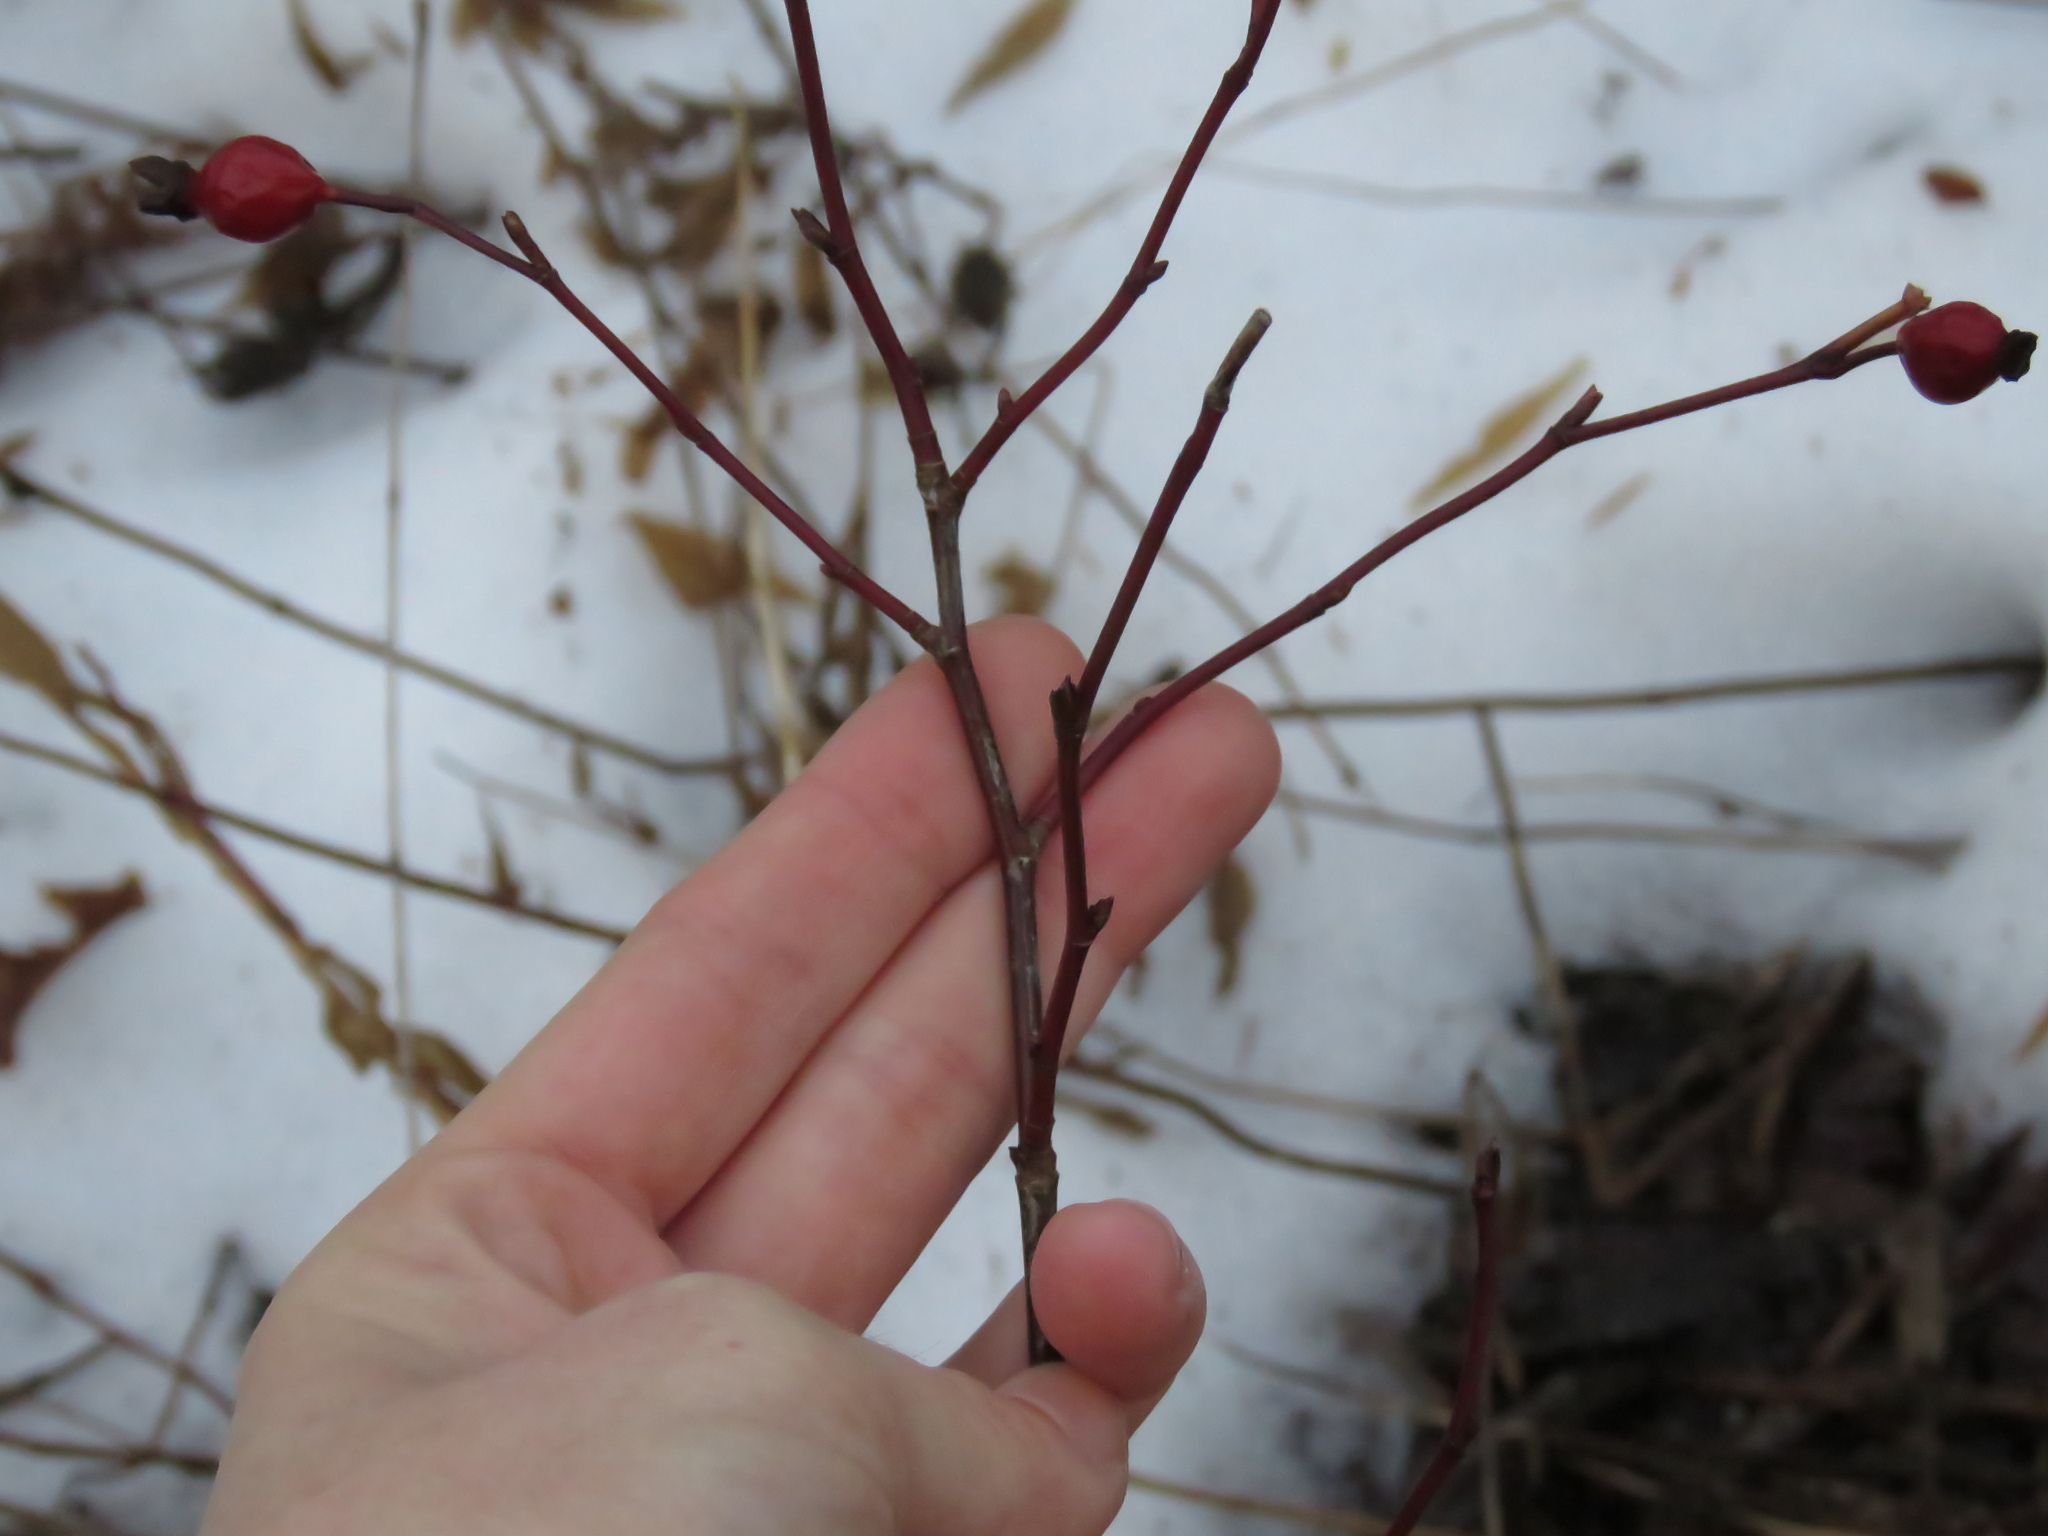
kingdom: Plantae
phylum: Tracheophyta
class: Magnoliopsida
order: Rosales
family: Rosaceae
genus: Rosa
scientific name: Rosa blanda
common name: Smooth rose
